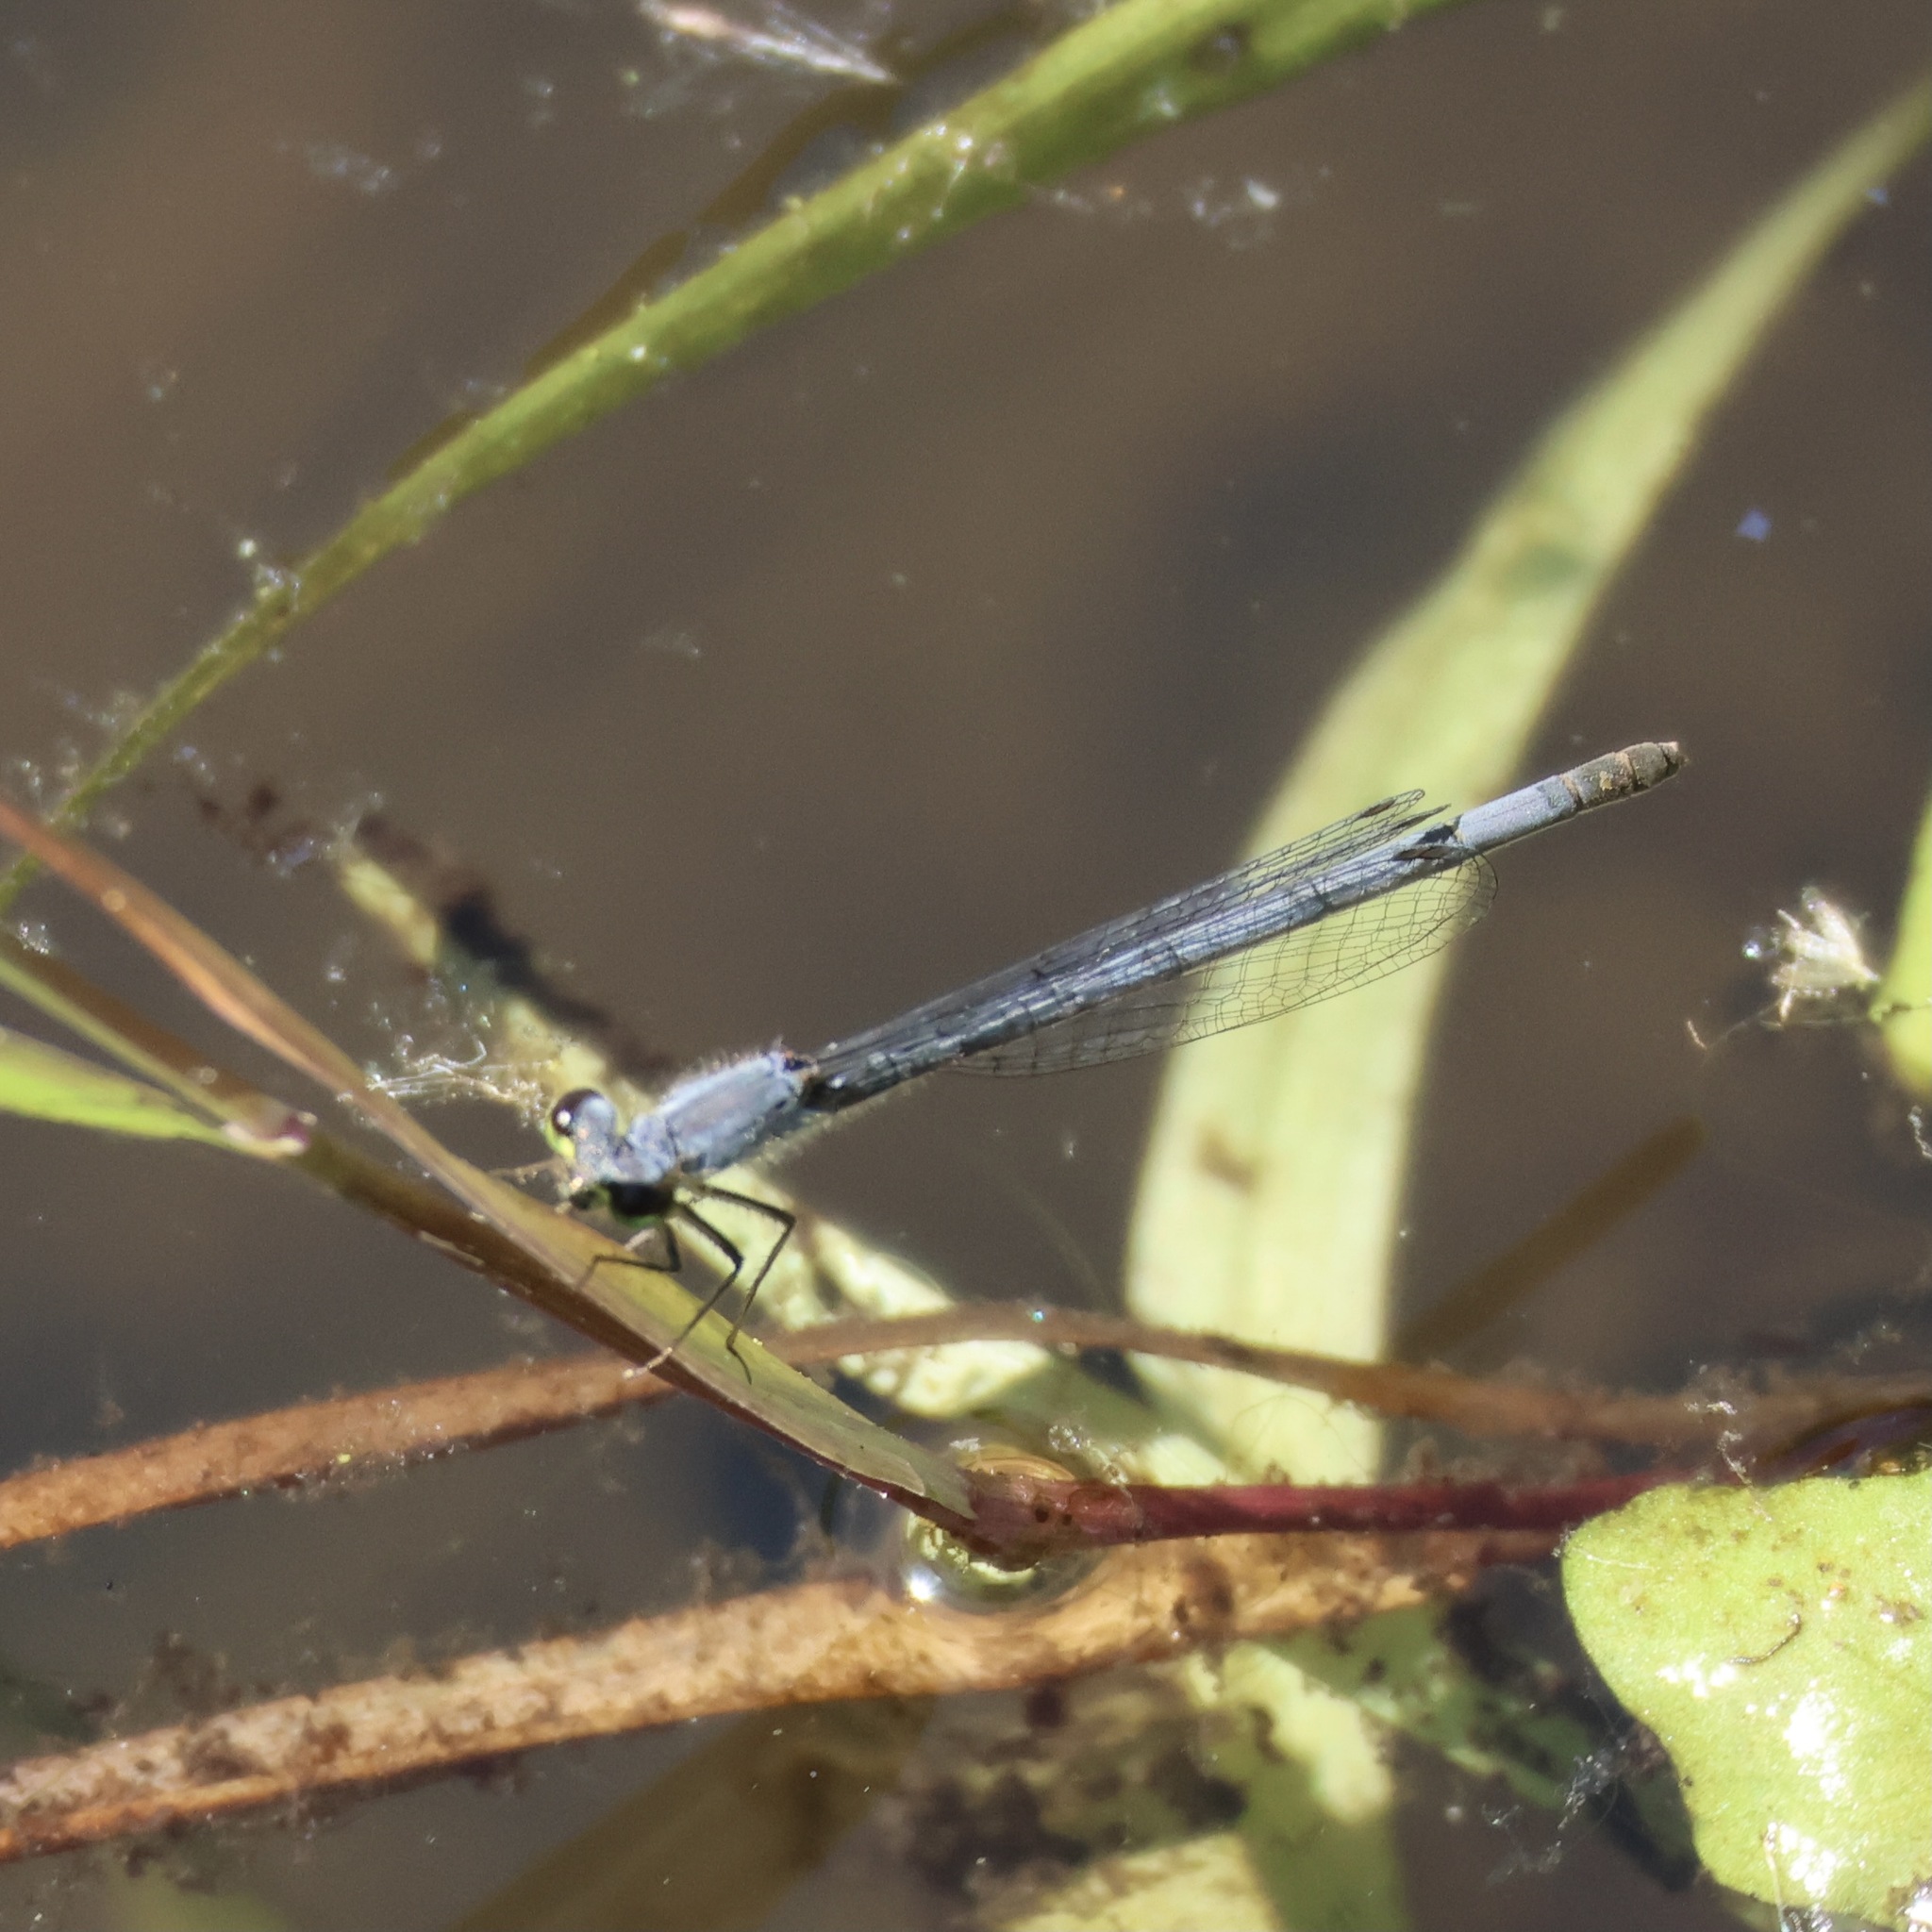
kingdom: Animalia
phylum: Arthropoda
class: Insecta
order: Odonata
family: Coenagrionidae
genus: Ischnura
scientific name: Ischnura posita
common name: Fragile forktail
